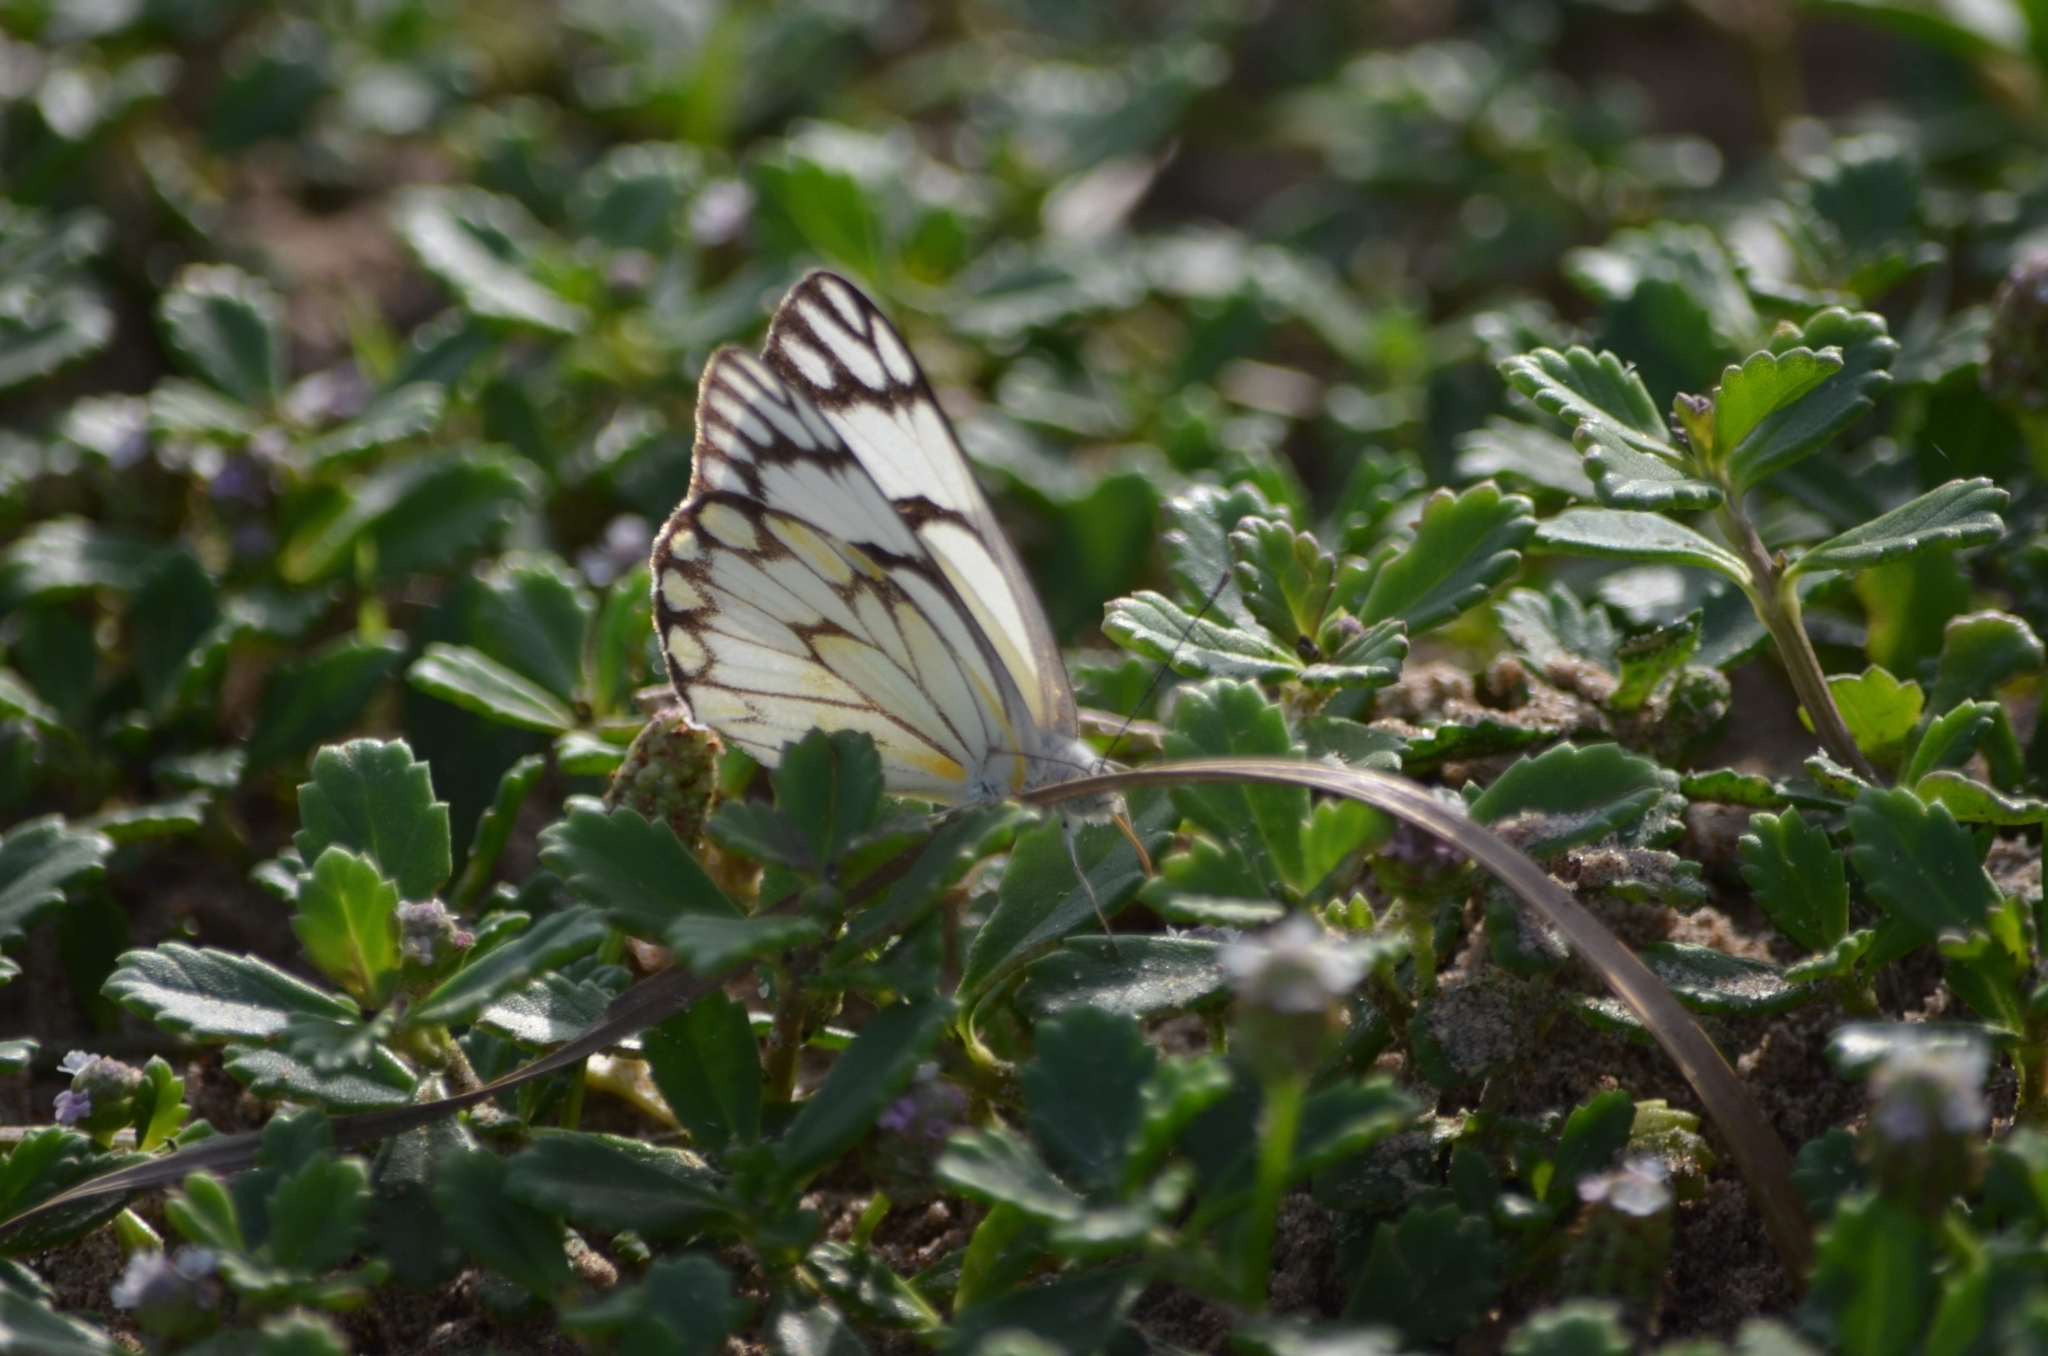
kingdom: Animalia
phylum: Arthropoda
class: Insecta
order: Lepidoptera
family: Pieridae
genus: Belenois
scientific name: Belenois aurota
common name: Brown-veined white
